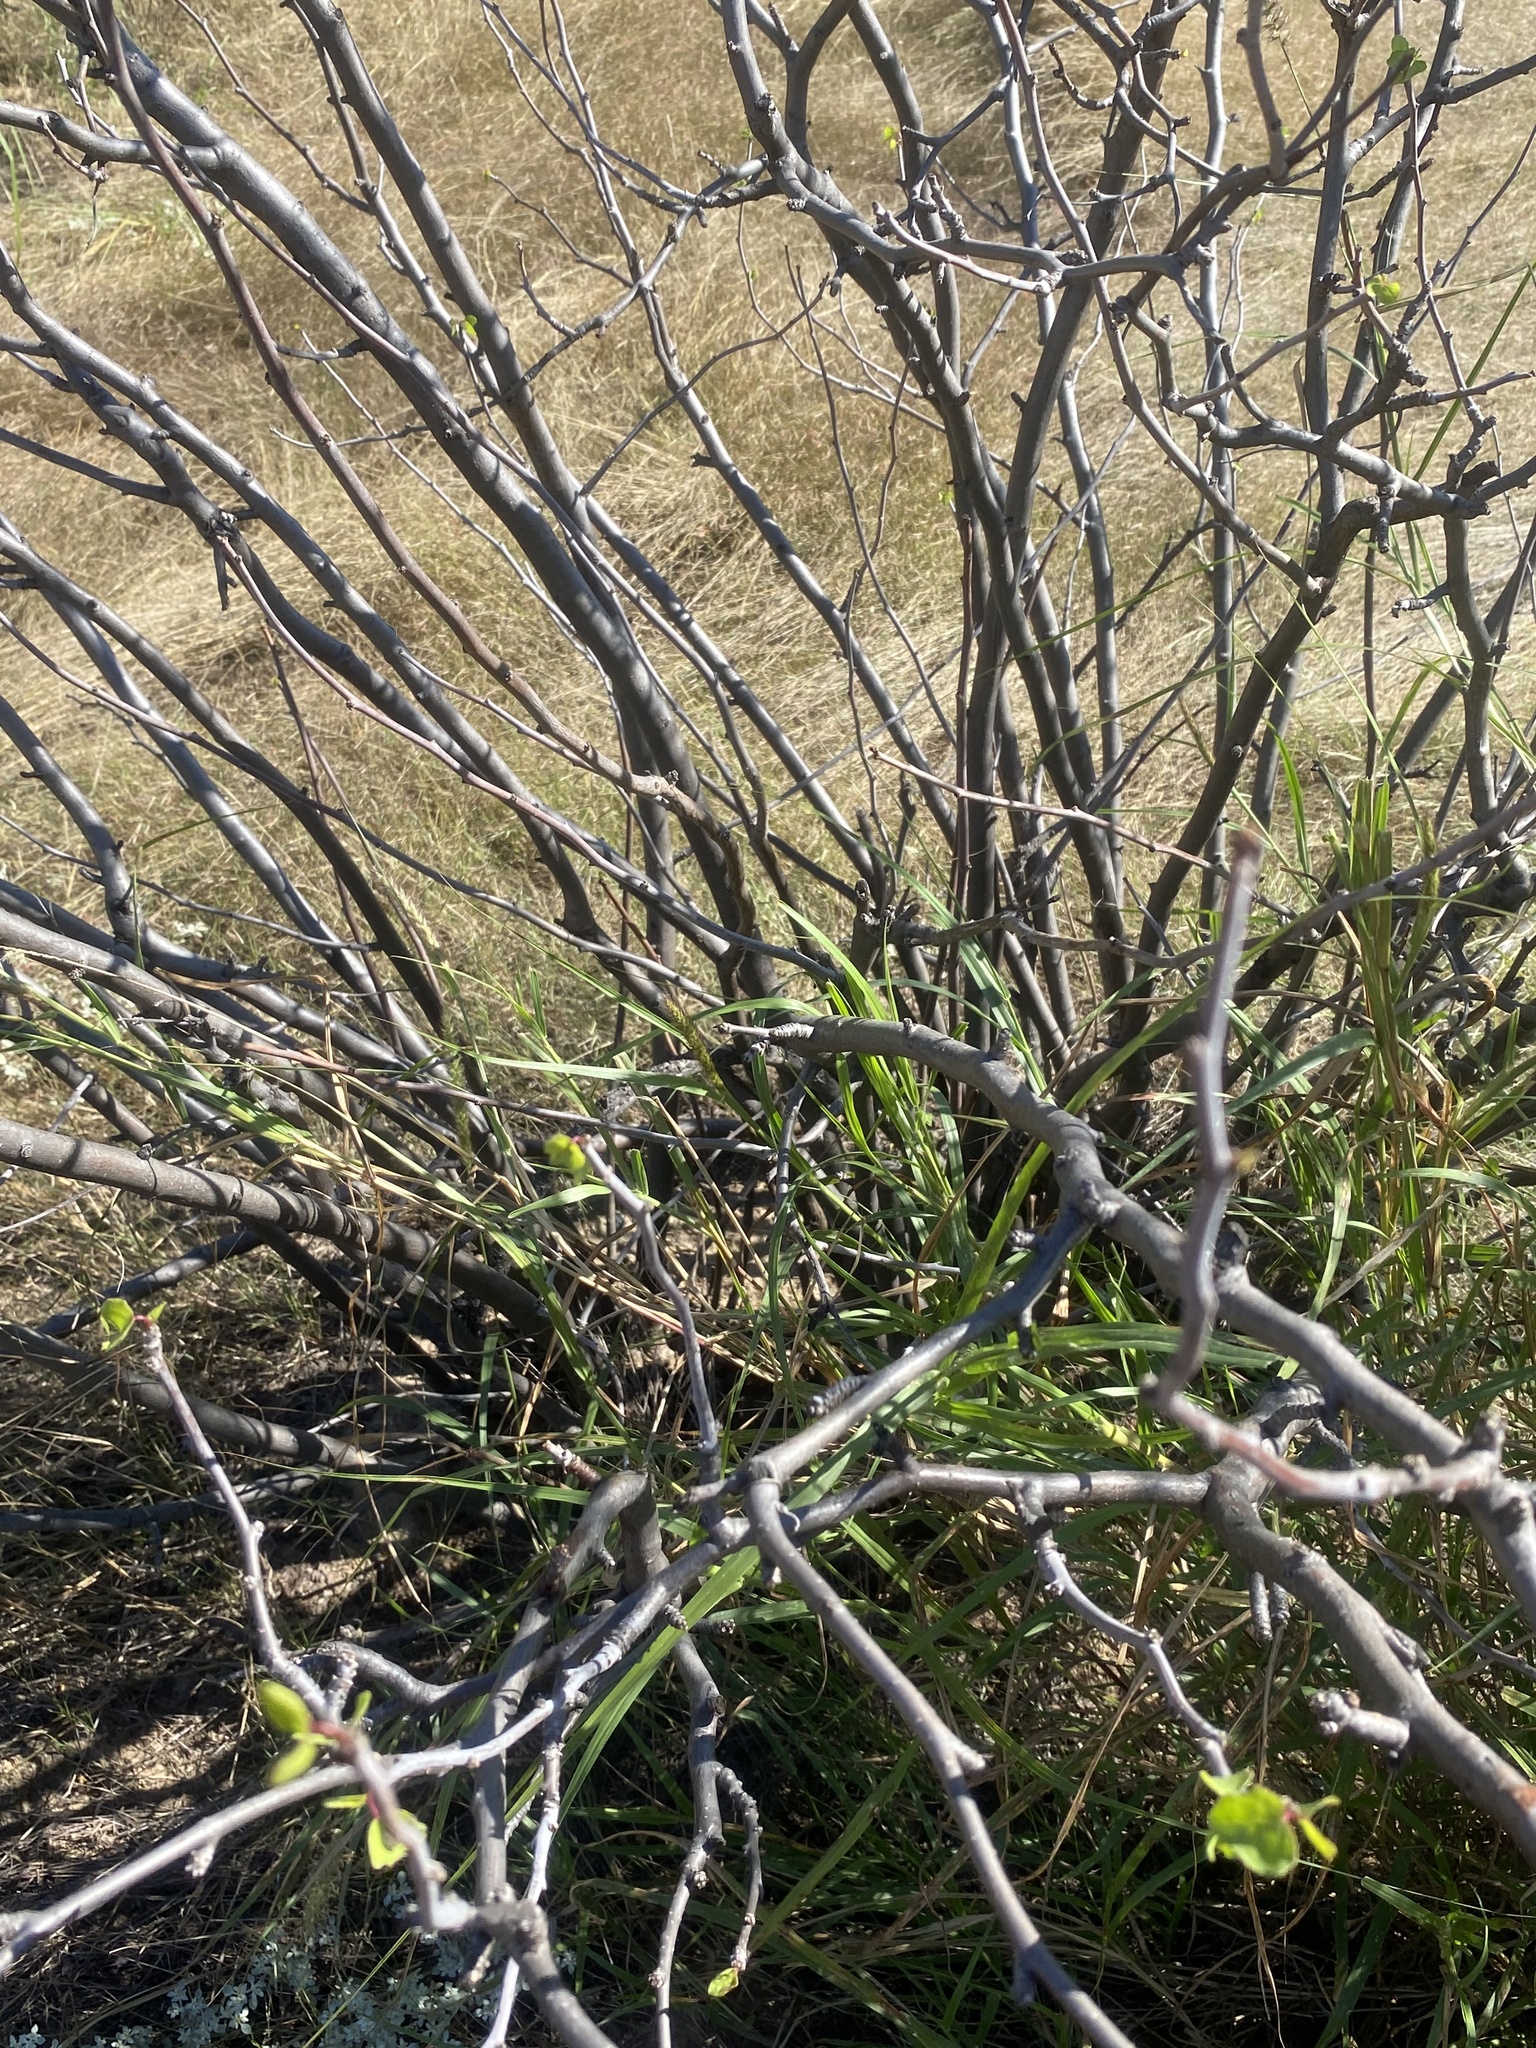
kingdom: Plantae
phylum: Tracheophyta
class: Magnoliopsida
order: Malpighiales
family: Euphorbiaceae
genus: Jatropha
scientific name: Jatropha cardiophylla
